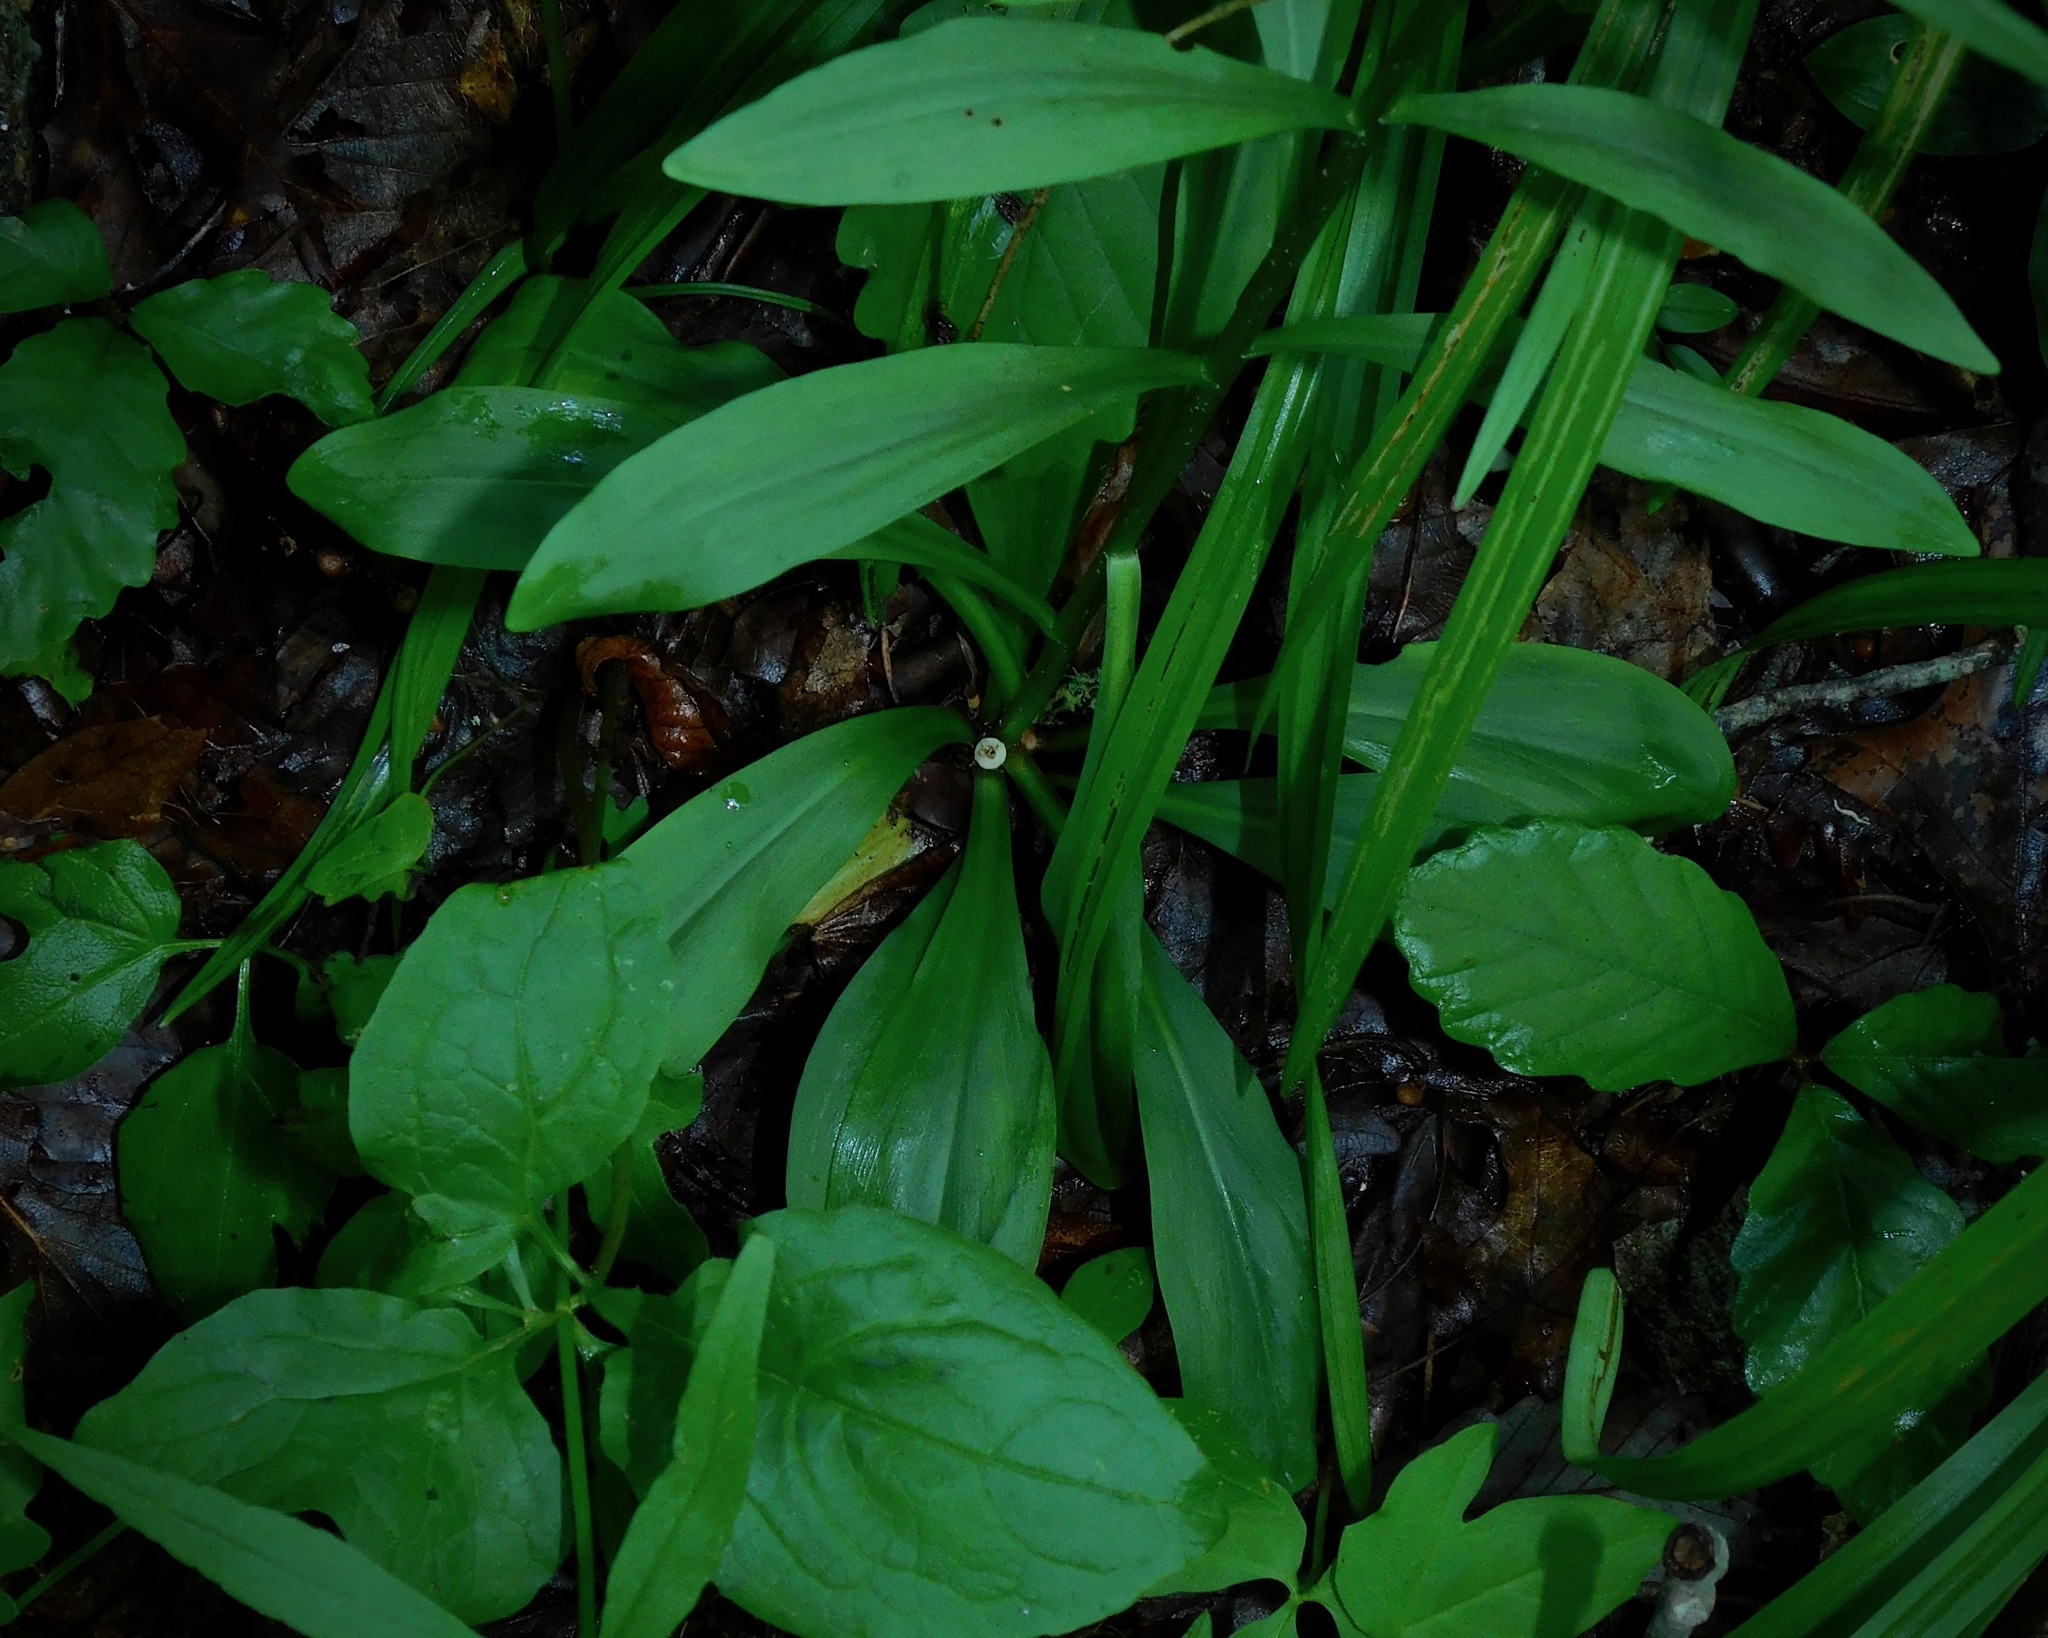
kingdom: Plantae
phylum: Tracheophyta
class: Liliopsida
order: Liliales
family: Melanthiaceae
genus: Chamaelirium
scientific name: Chamaelirium luteum
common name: Fairy-wand
